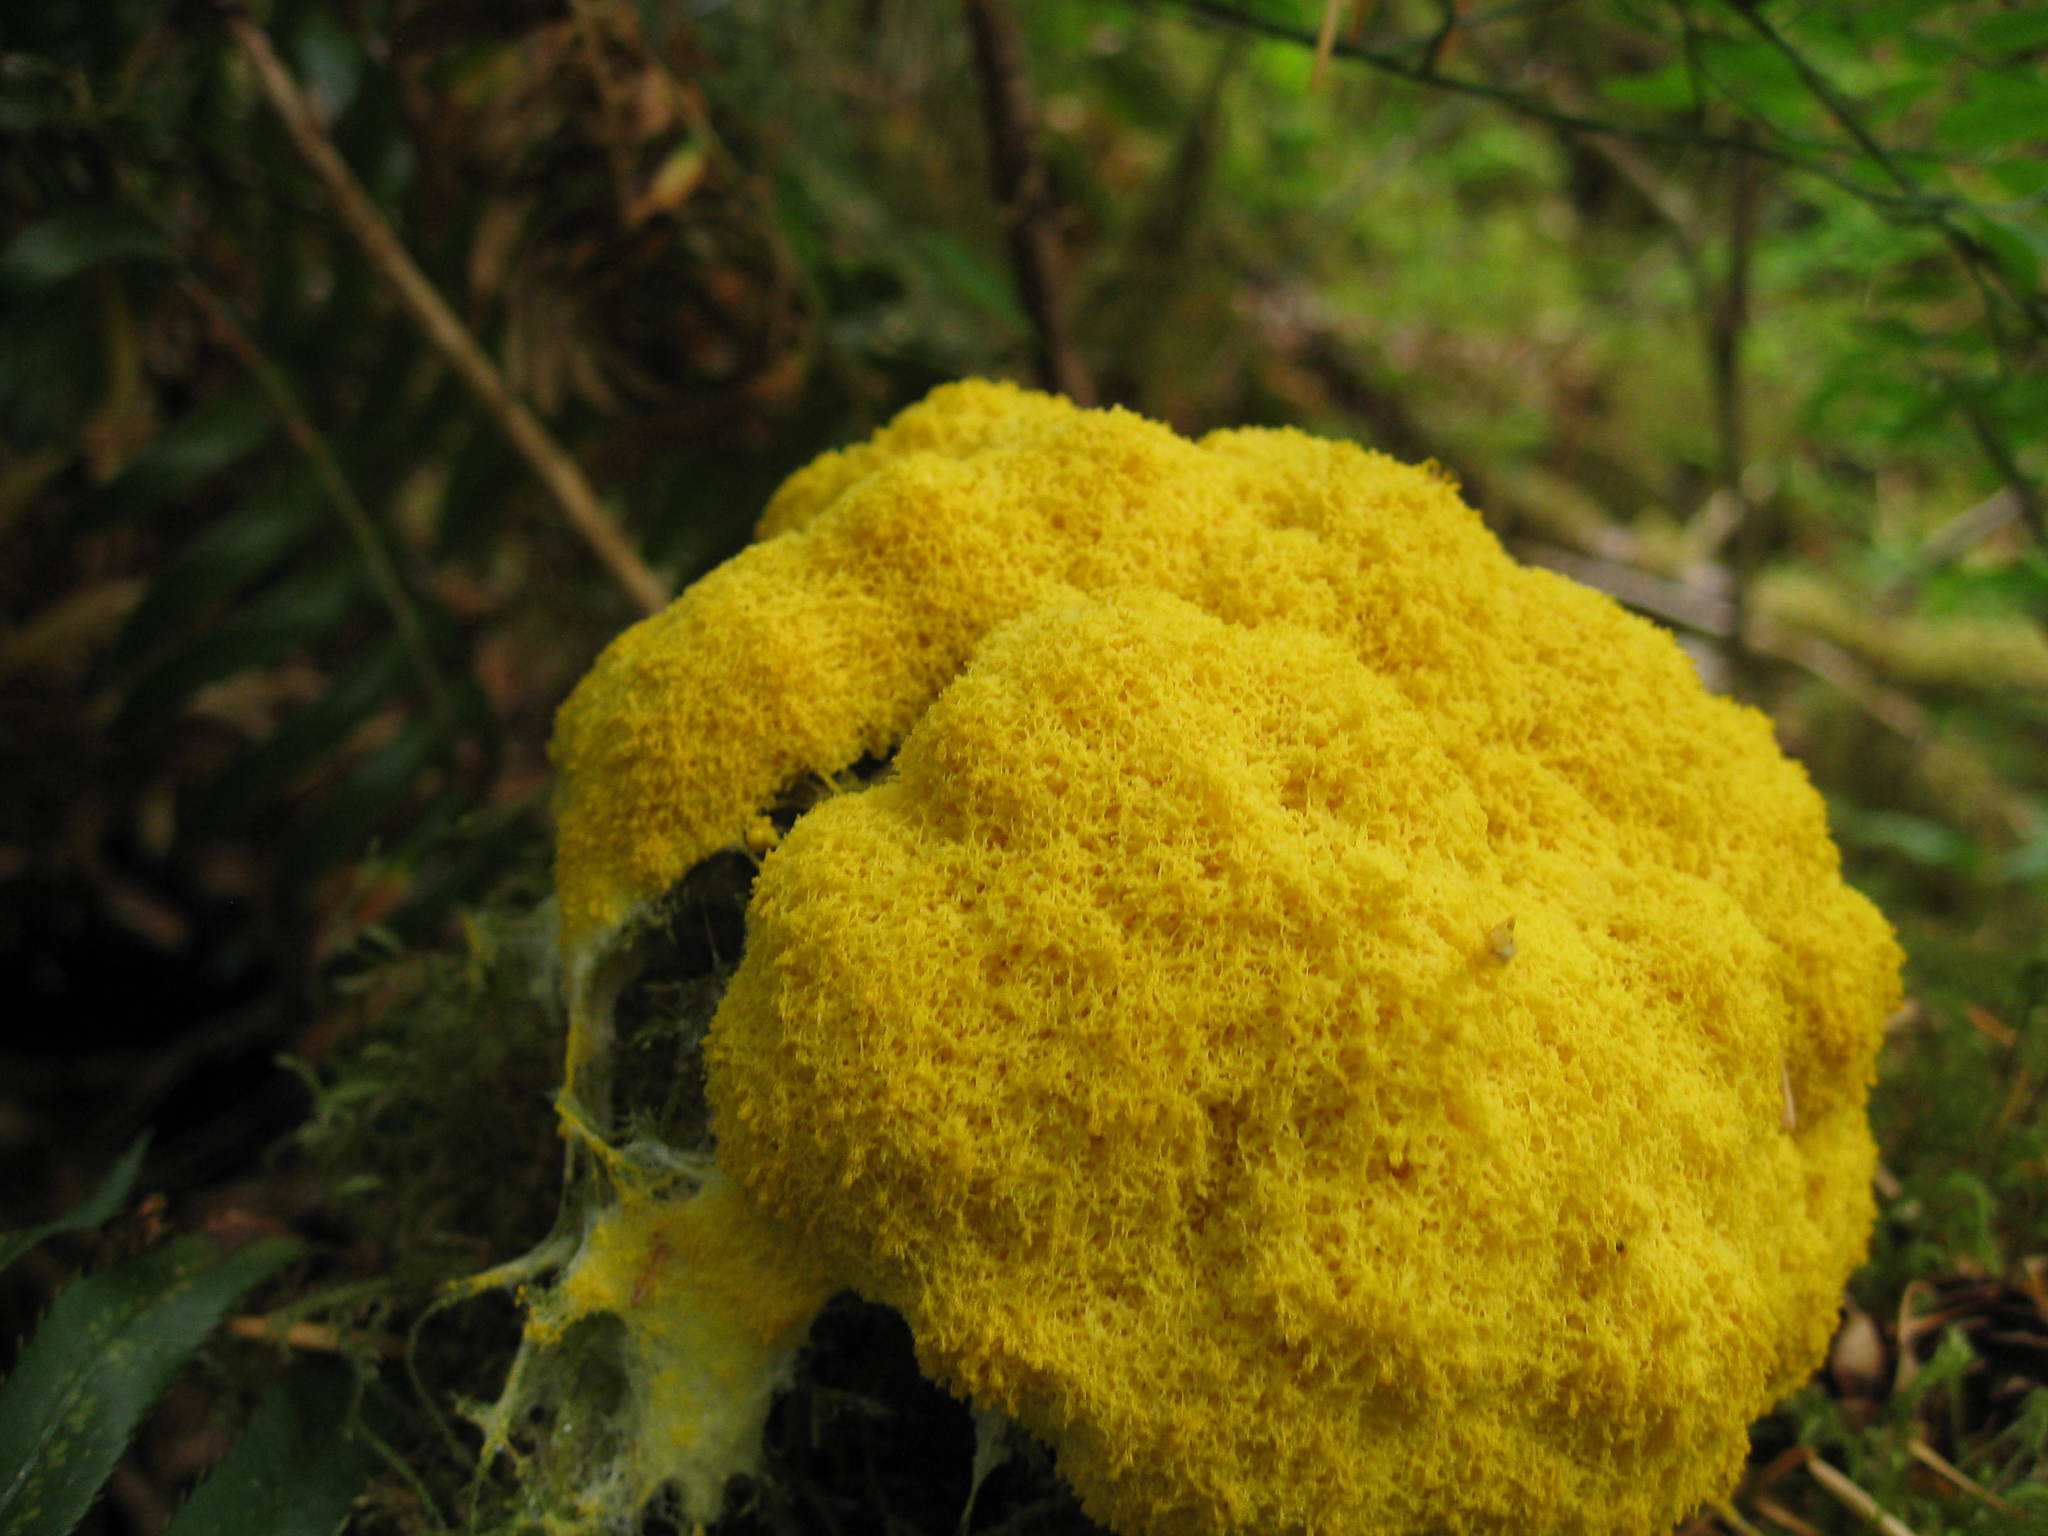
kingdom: Protozoa
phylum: Mycetozoa
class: Myxomycetes
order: Physarales
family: Physaraceae
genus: Fuligo
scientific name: Fuligo septica
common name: Dog vomit slime mold
